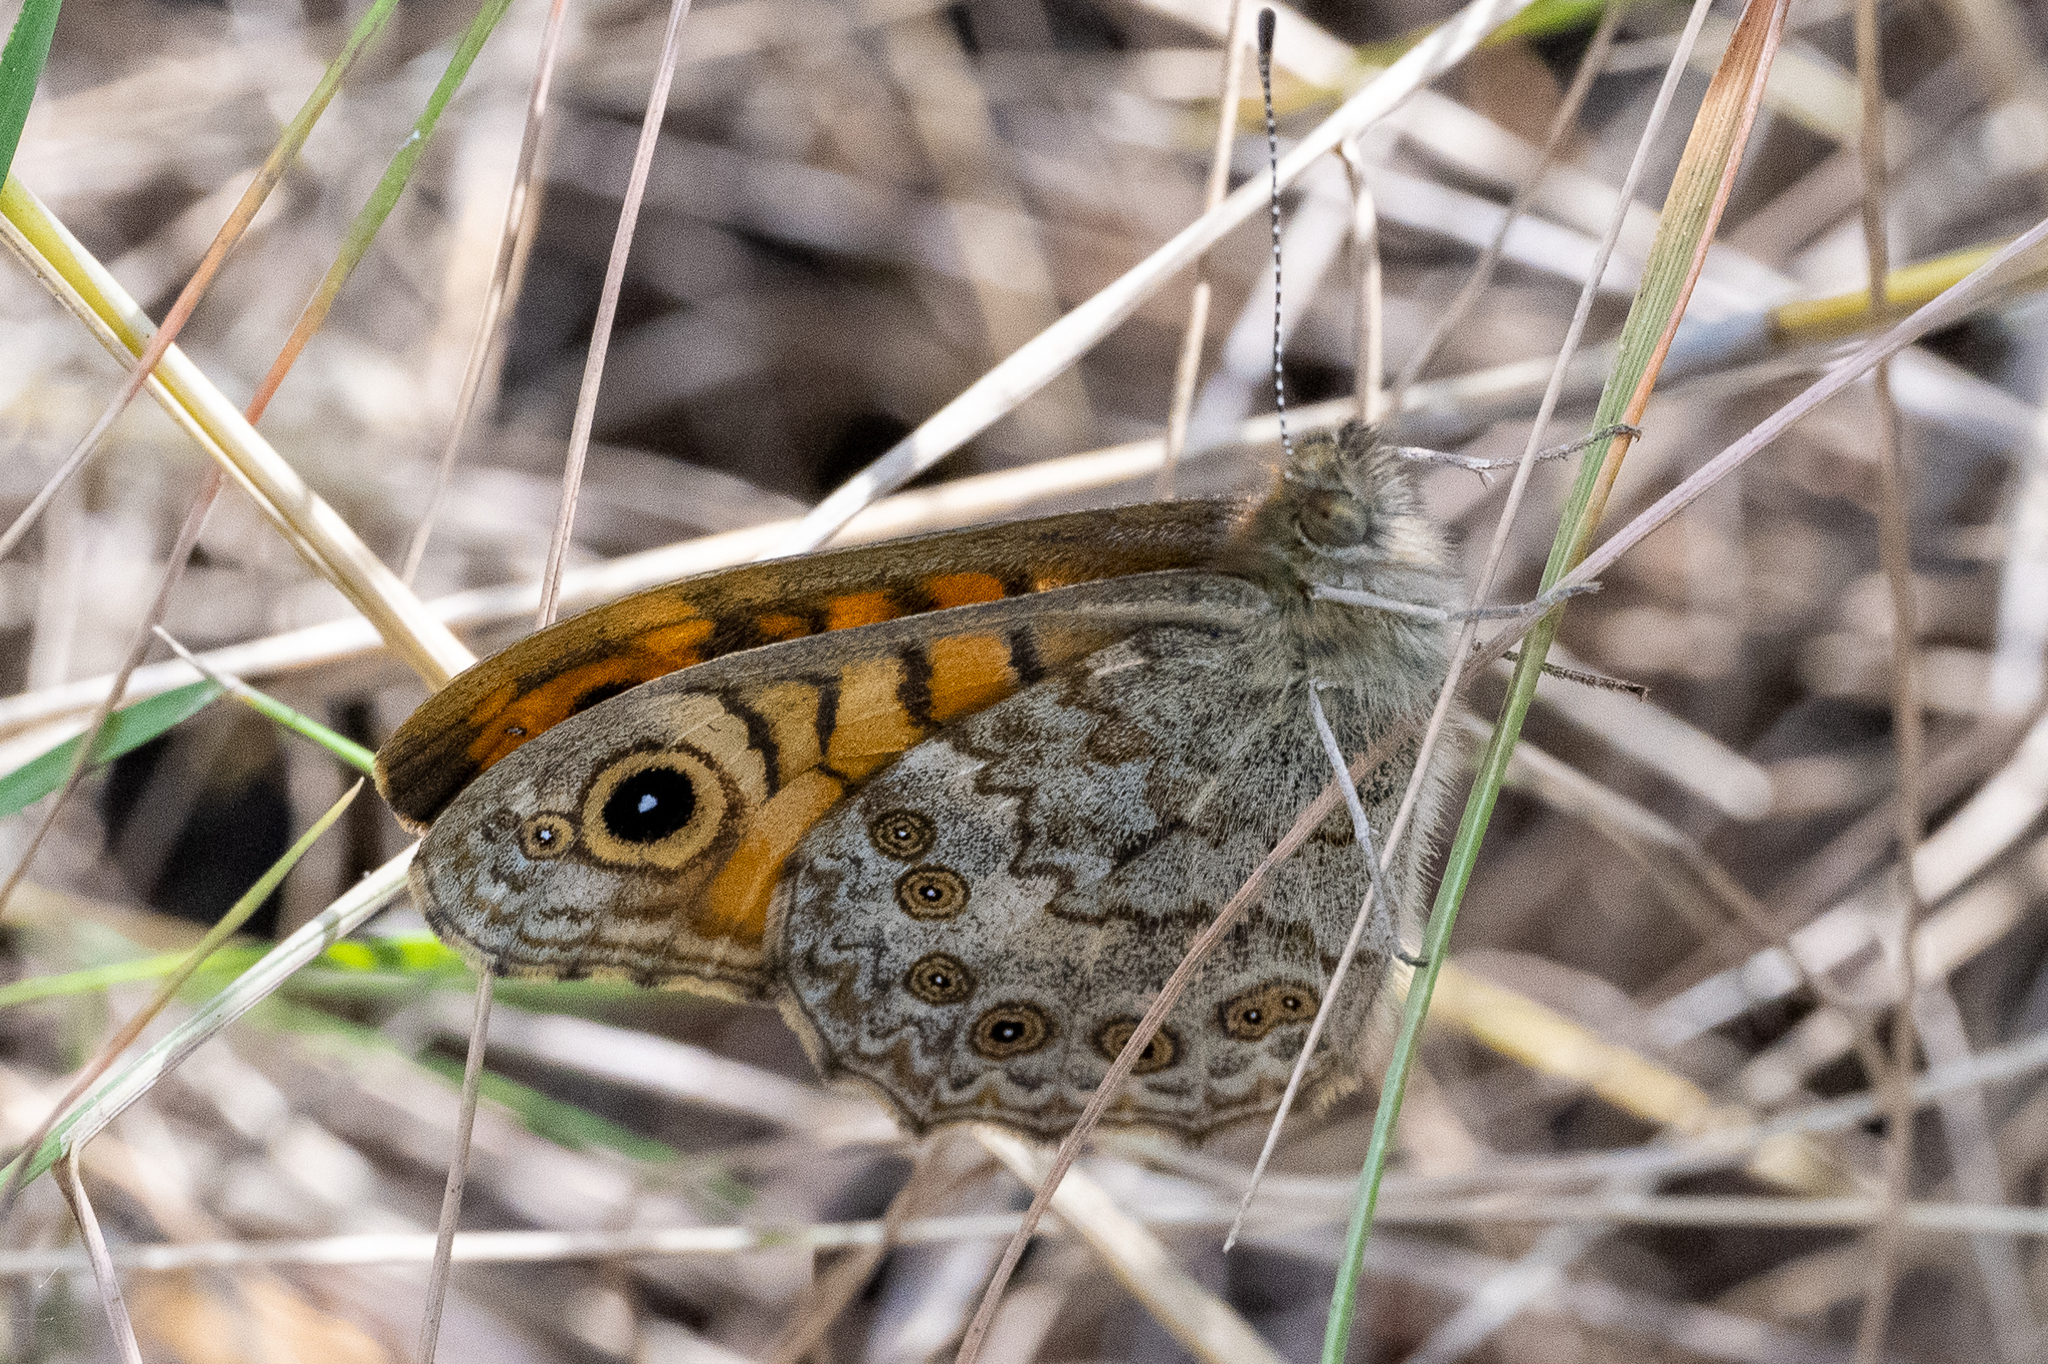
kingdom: Animalia
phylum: Arthropoda
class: Insecta
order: Lepidoptera
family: Nymphalidae
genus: Pararge
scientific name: Pararge Lasiommata megera
